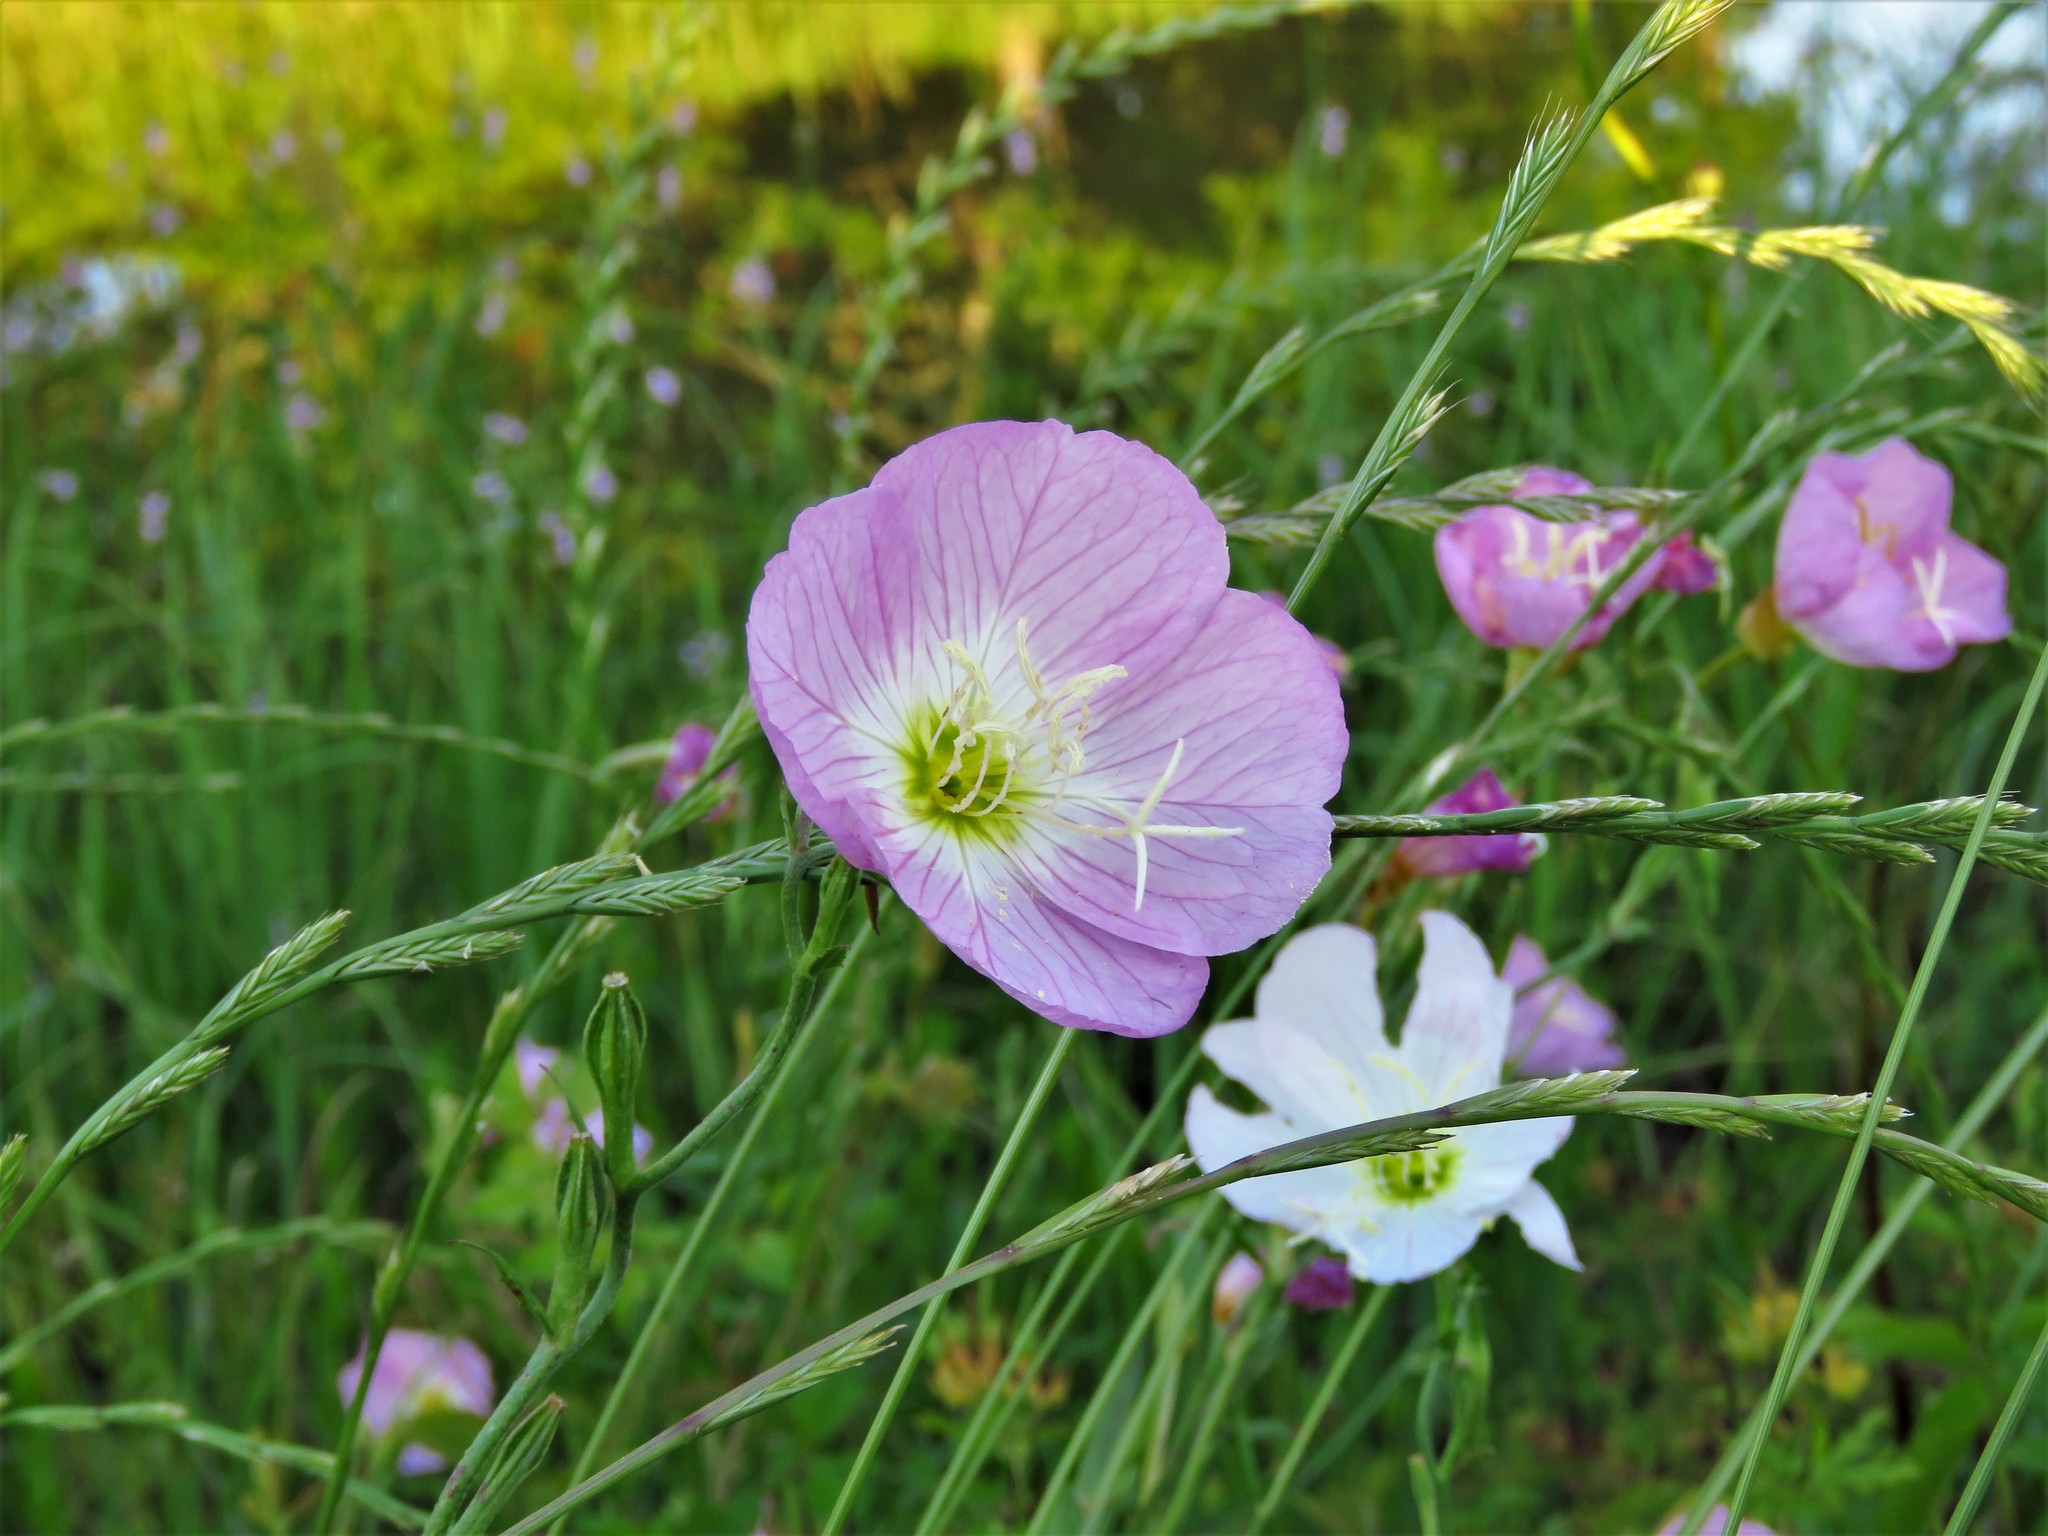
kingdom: Plantae
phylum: Tracheophyta
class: Magnoliopsida
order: Myrtales
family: Onagraceae
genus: Oenothera
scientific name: Oenothera speciosa
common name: White evening-primrose
